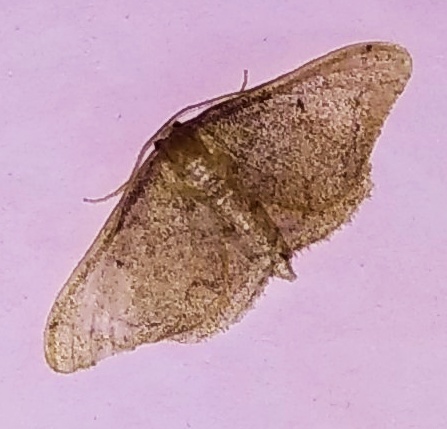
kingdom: Animalia
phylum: Arthropoda
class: Insecta
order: Lepidoptera
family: Geometridae
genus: Idaea
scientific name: Idaea amplipennis
